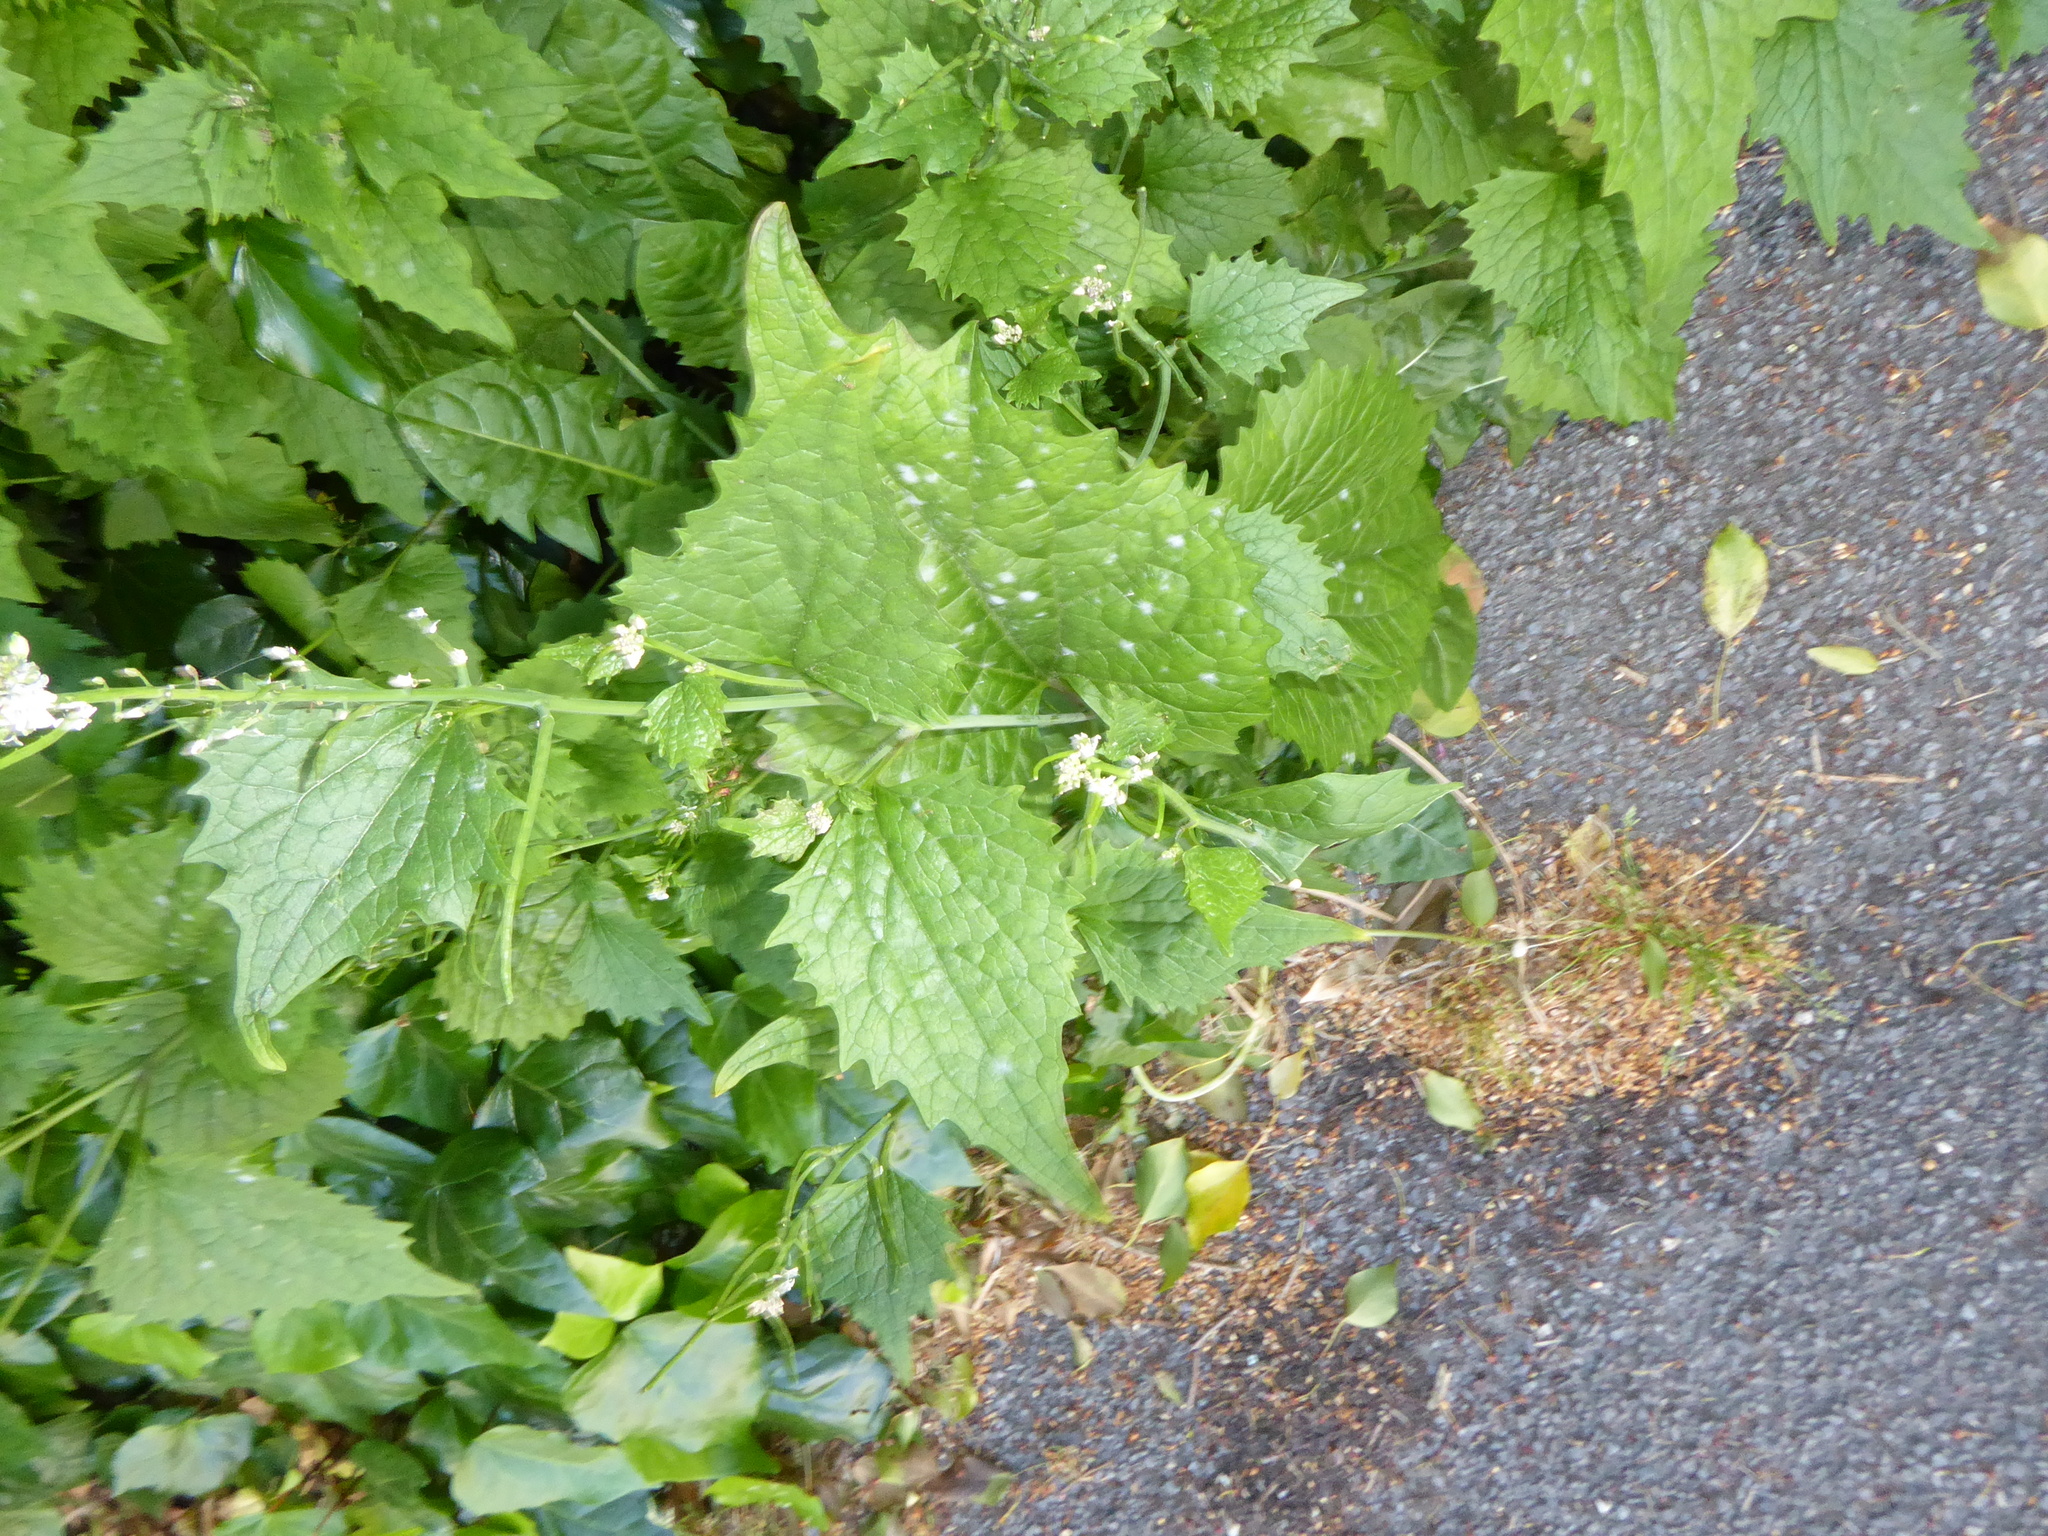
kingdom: Plantae
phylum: Tracheophyta
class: Magnoliopsida
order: Brassicales
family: Brassicaceae
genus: Alliaria
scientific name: Alliaria petiolata
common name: Garlic mustard
